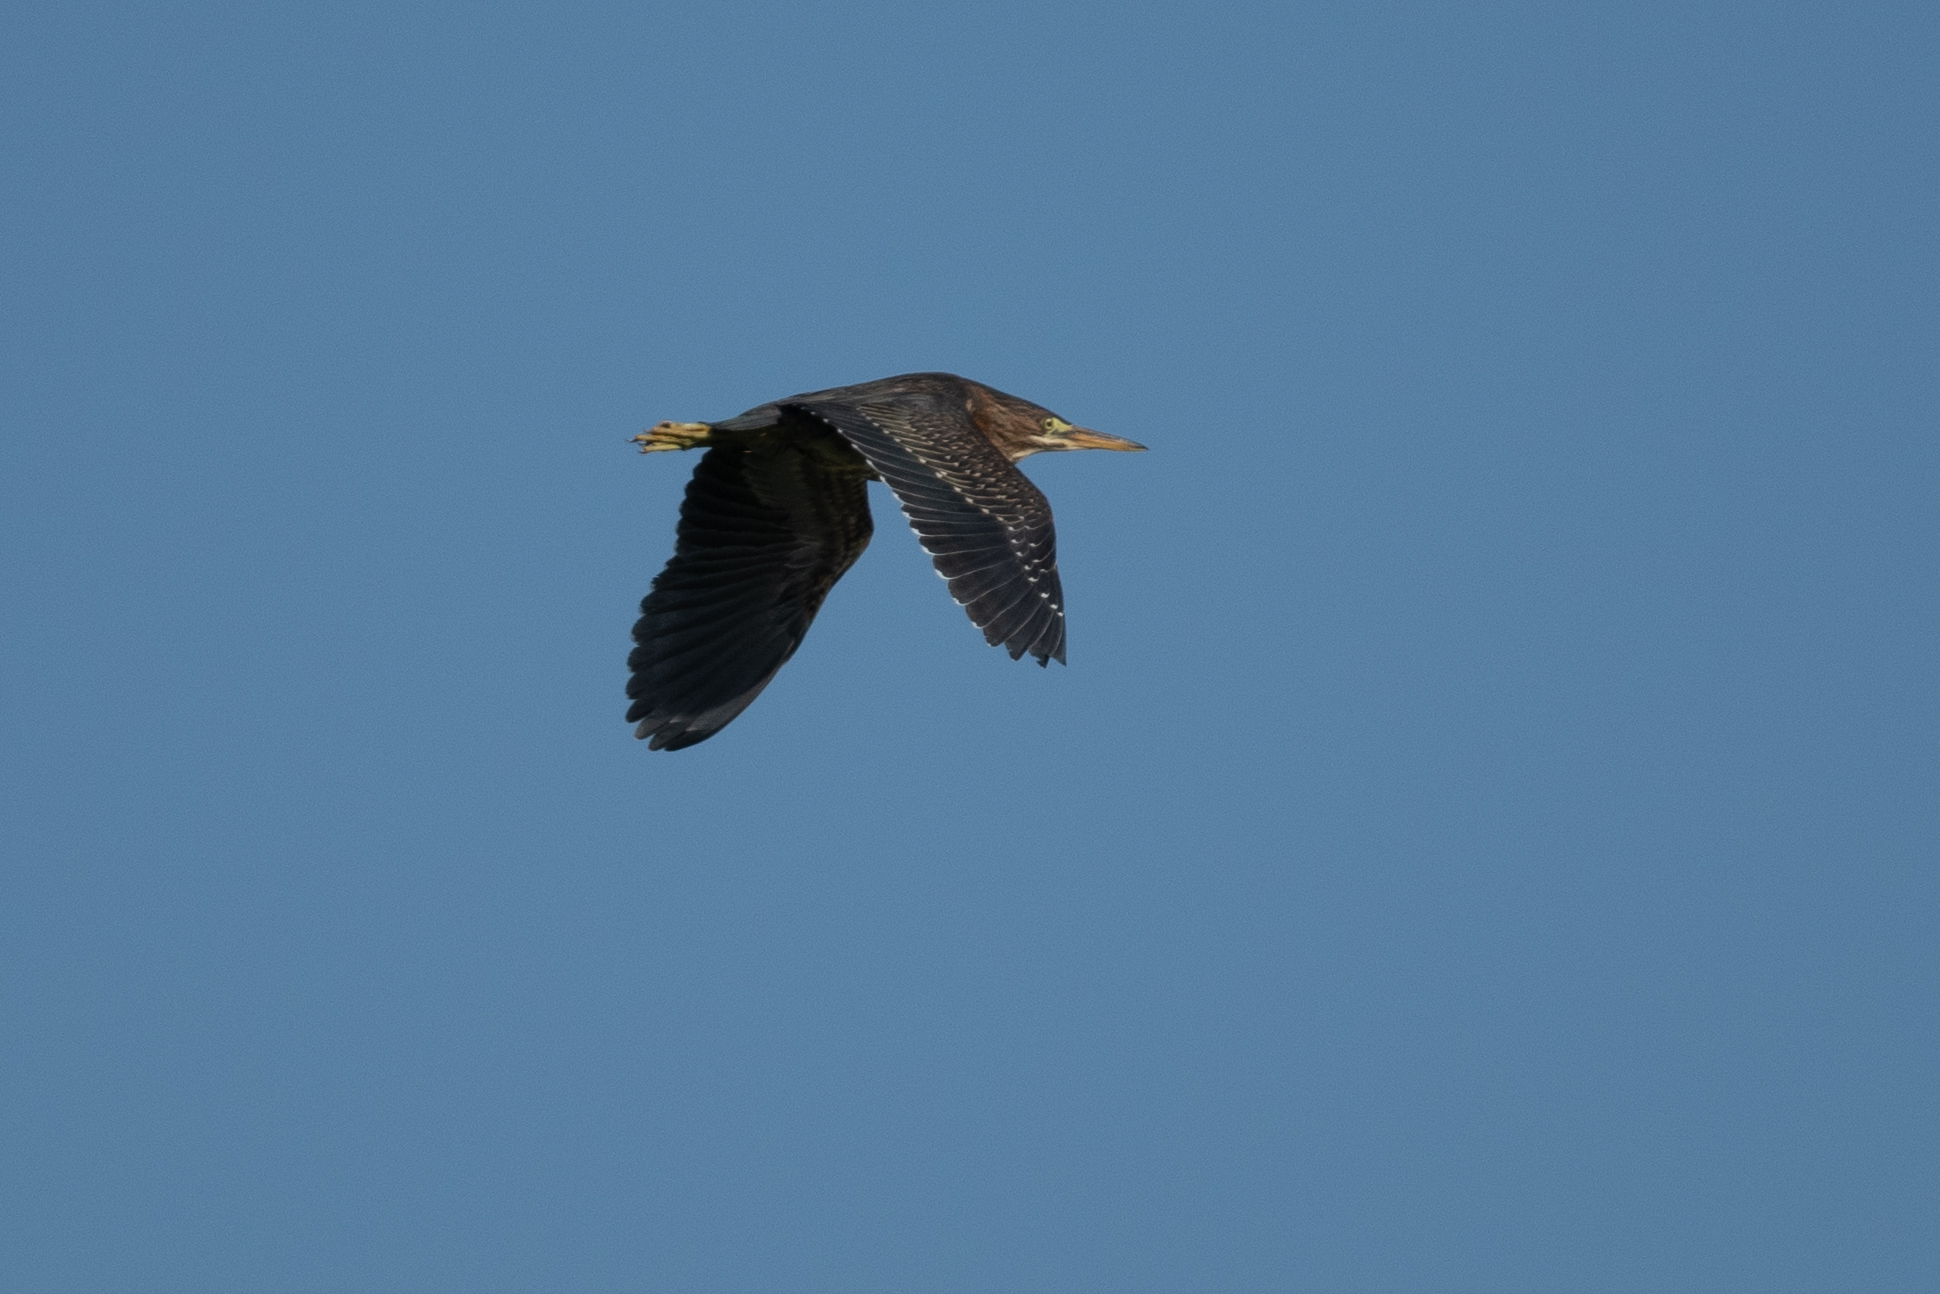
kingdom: Animalia
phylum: Chordata
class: Aves
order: Pelecaniformes
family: Ardeidae
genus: Butorides
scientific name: Butorides virescens
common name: Green heron
